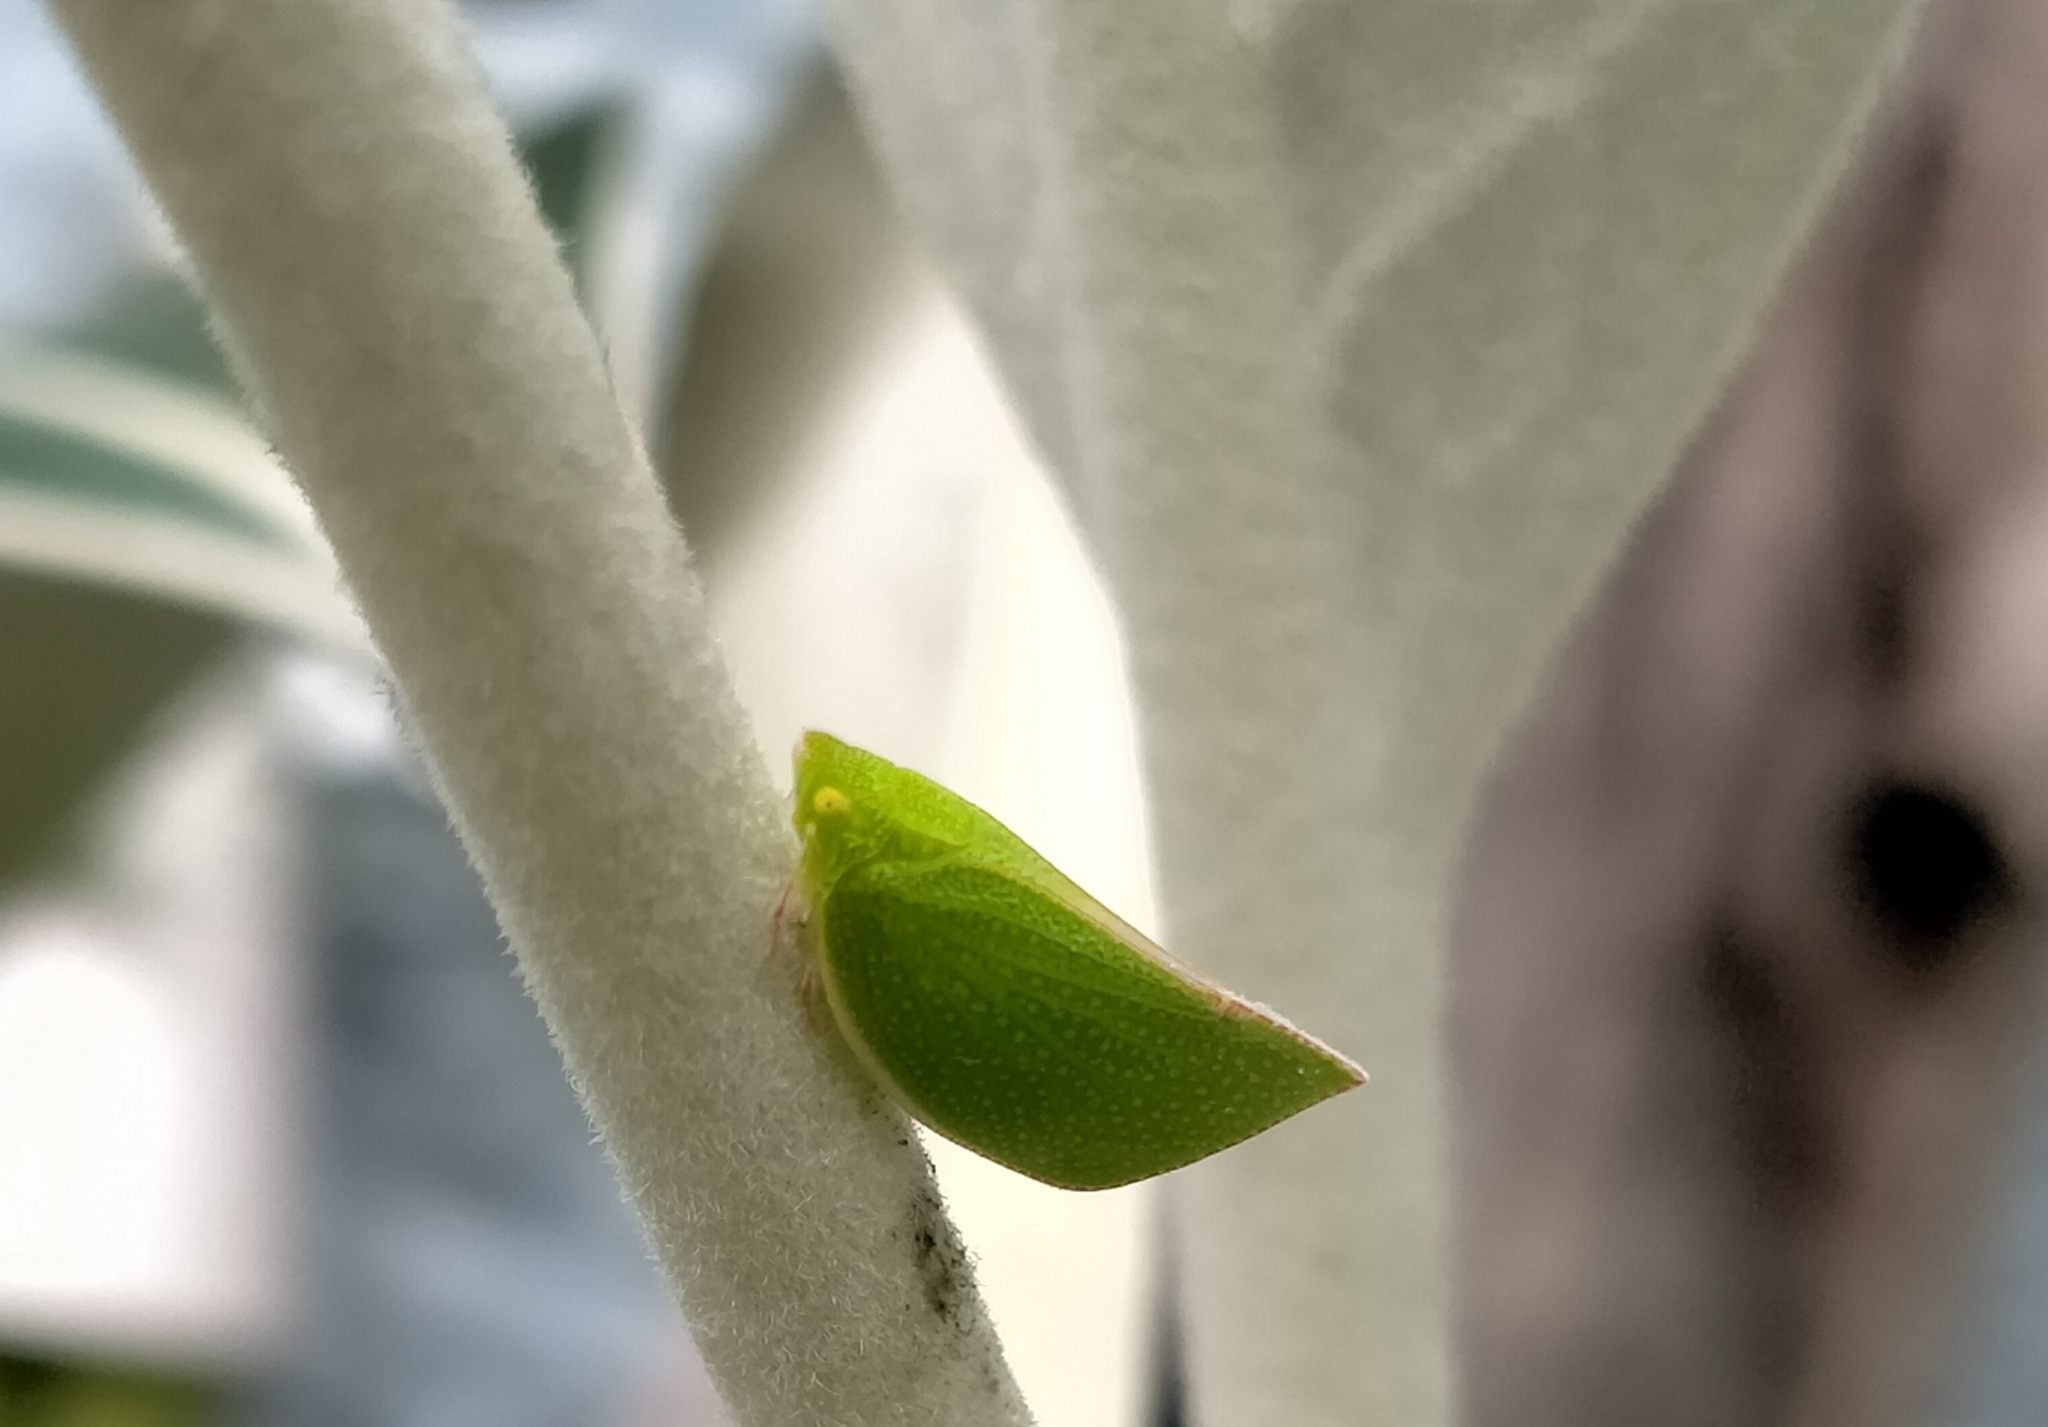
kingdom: Animalia
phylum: Arthropoda
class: Insecta
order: Hemiptera
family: Flatidae
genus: Siphanta
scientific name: Siphanta acuta
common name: Torpedo bug
